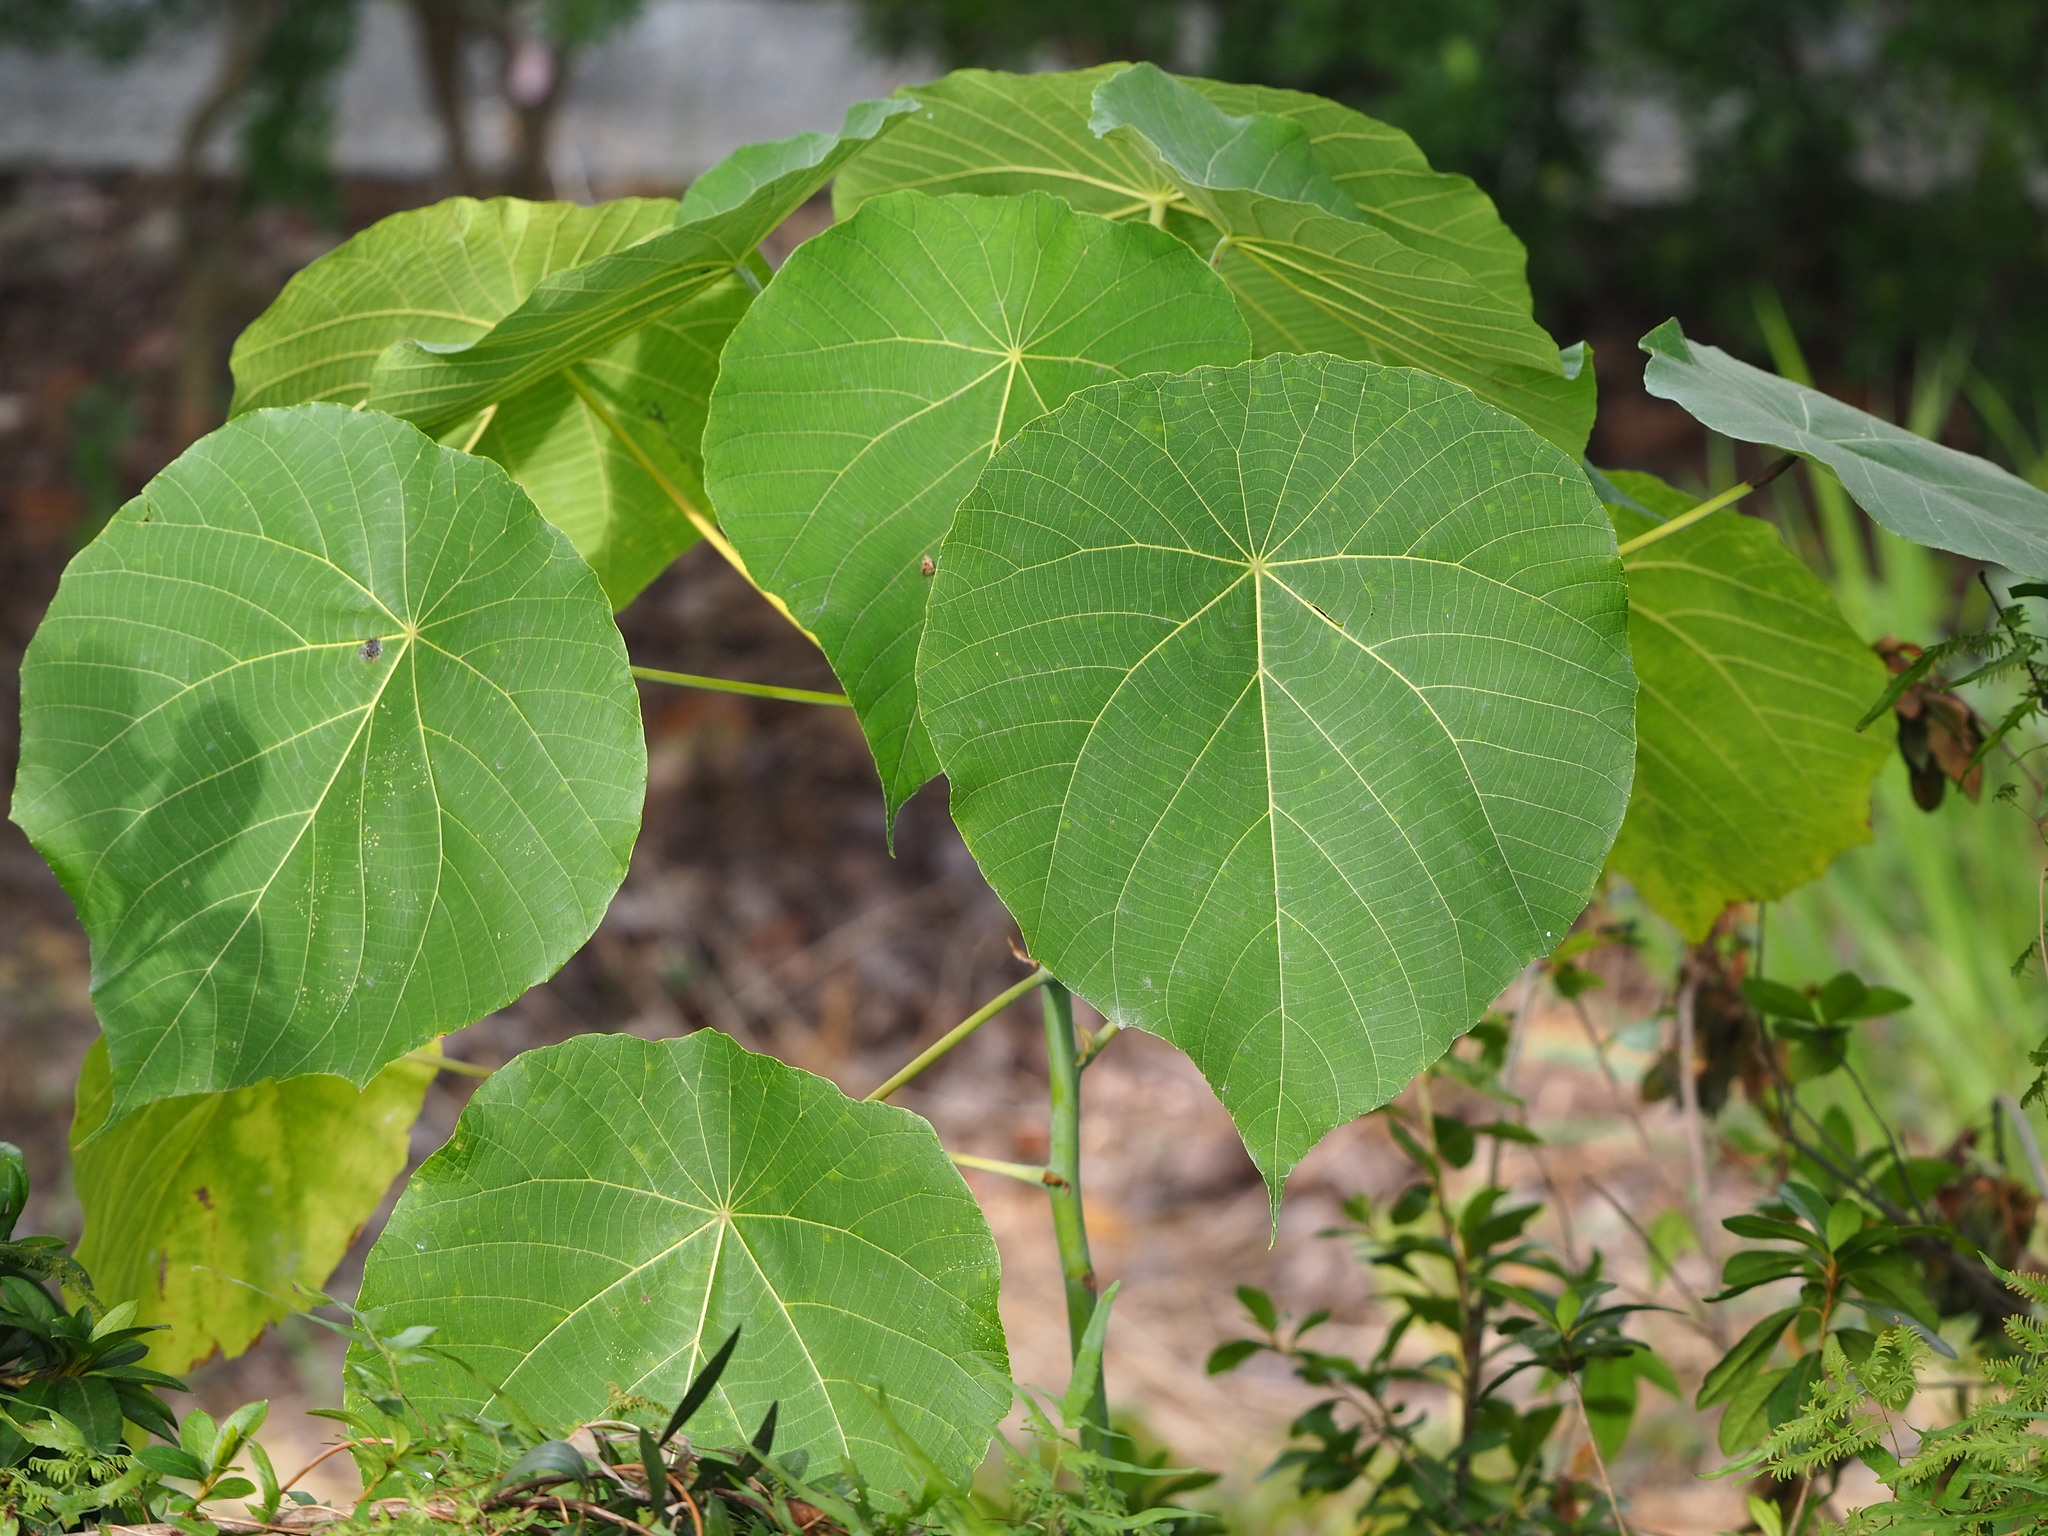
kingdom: Plantae
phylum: Tracheophyta
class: Magnoliopsida
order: Malpighiales
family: Euphorbiaceae
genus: Macaranga
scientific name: Macaranga tanarius
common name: Parasol leaf tree
